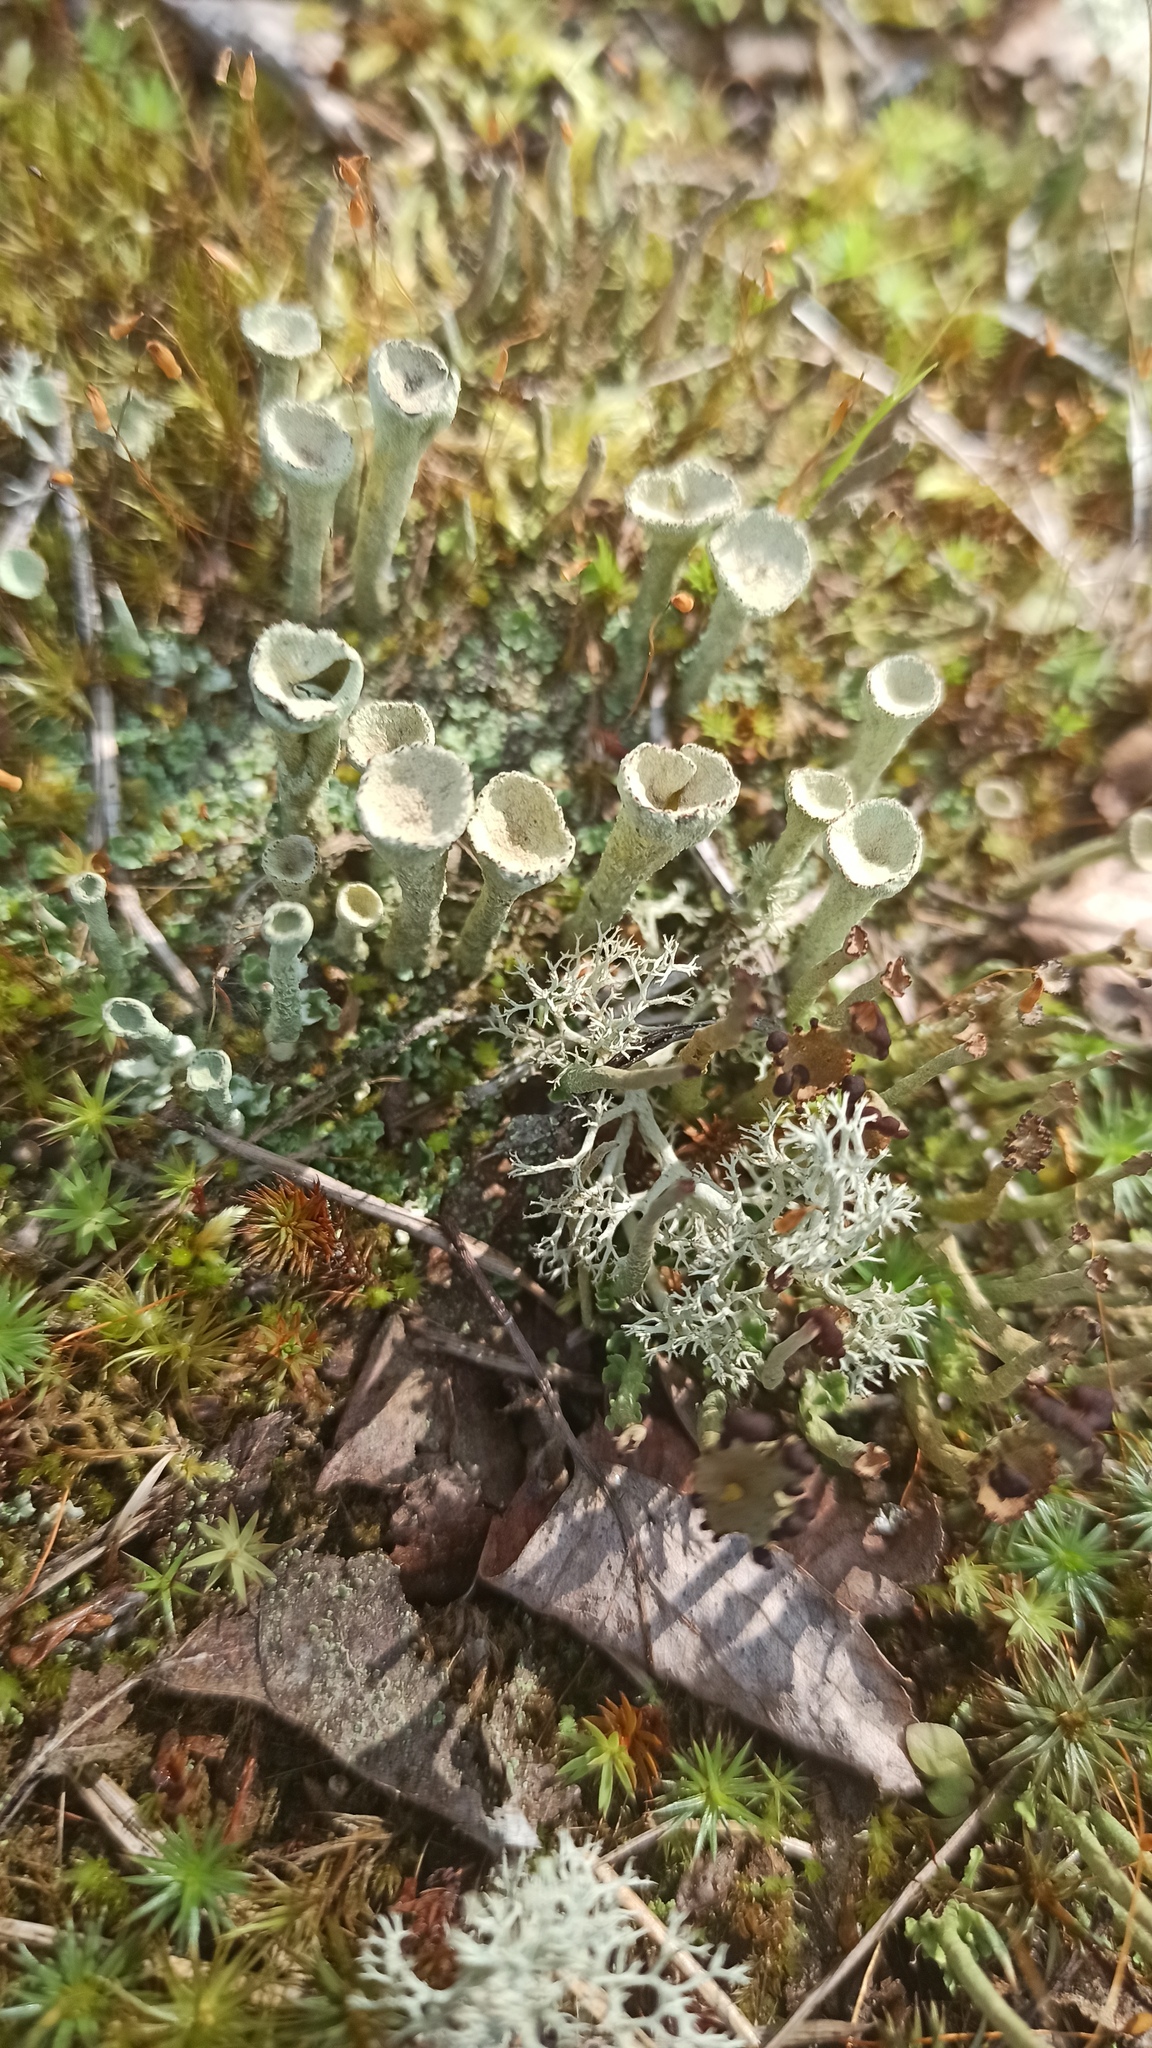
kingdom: Fungi
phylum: Ascomycota
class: Lecanoromycetes
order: Lecanorales
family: Cladoniaceae
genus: Cladonia
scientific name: Cladonia deformis
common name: Lesser sulphur-cup lichen
